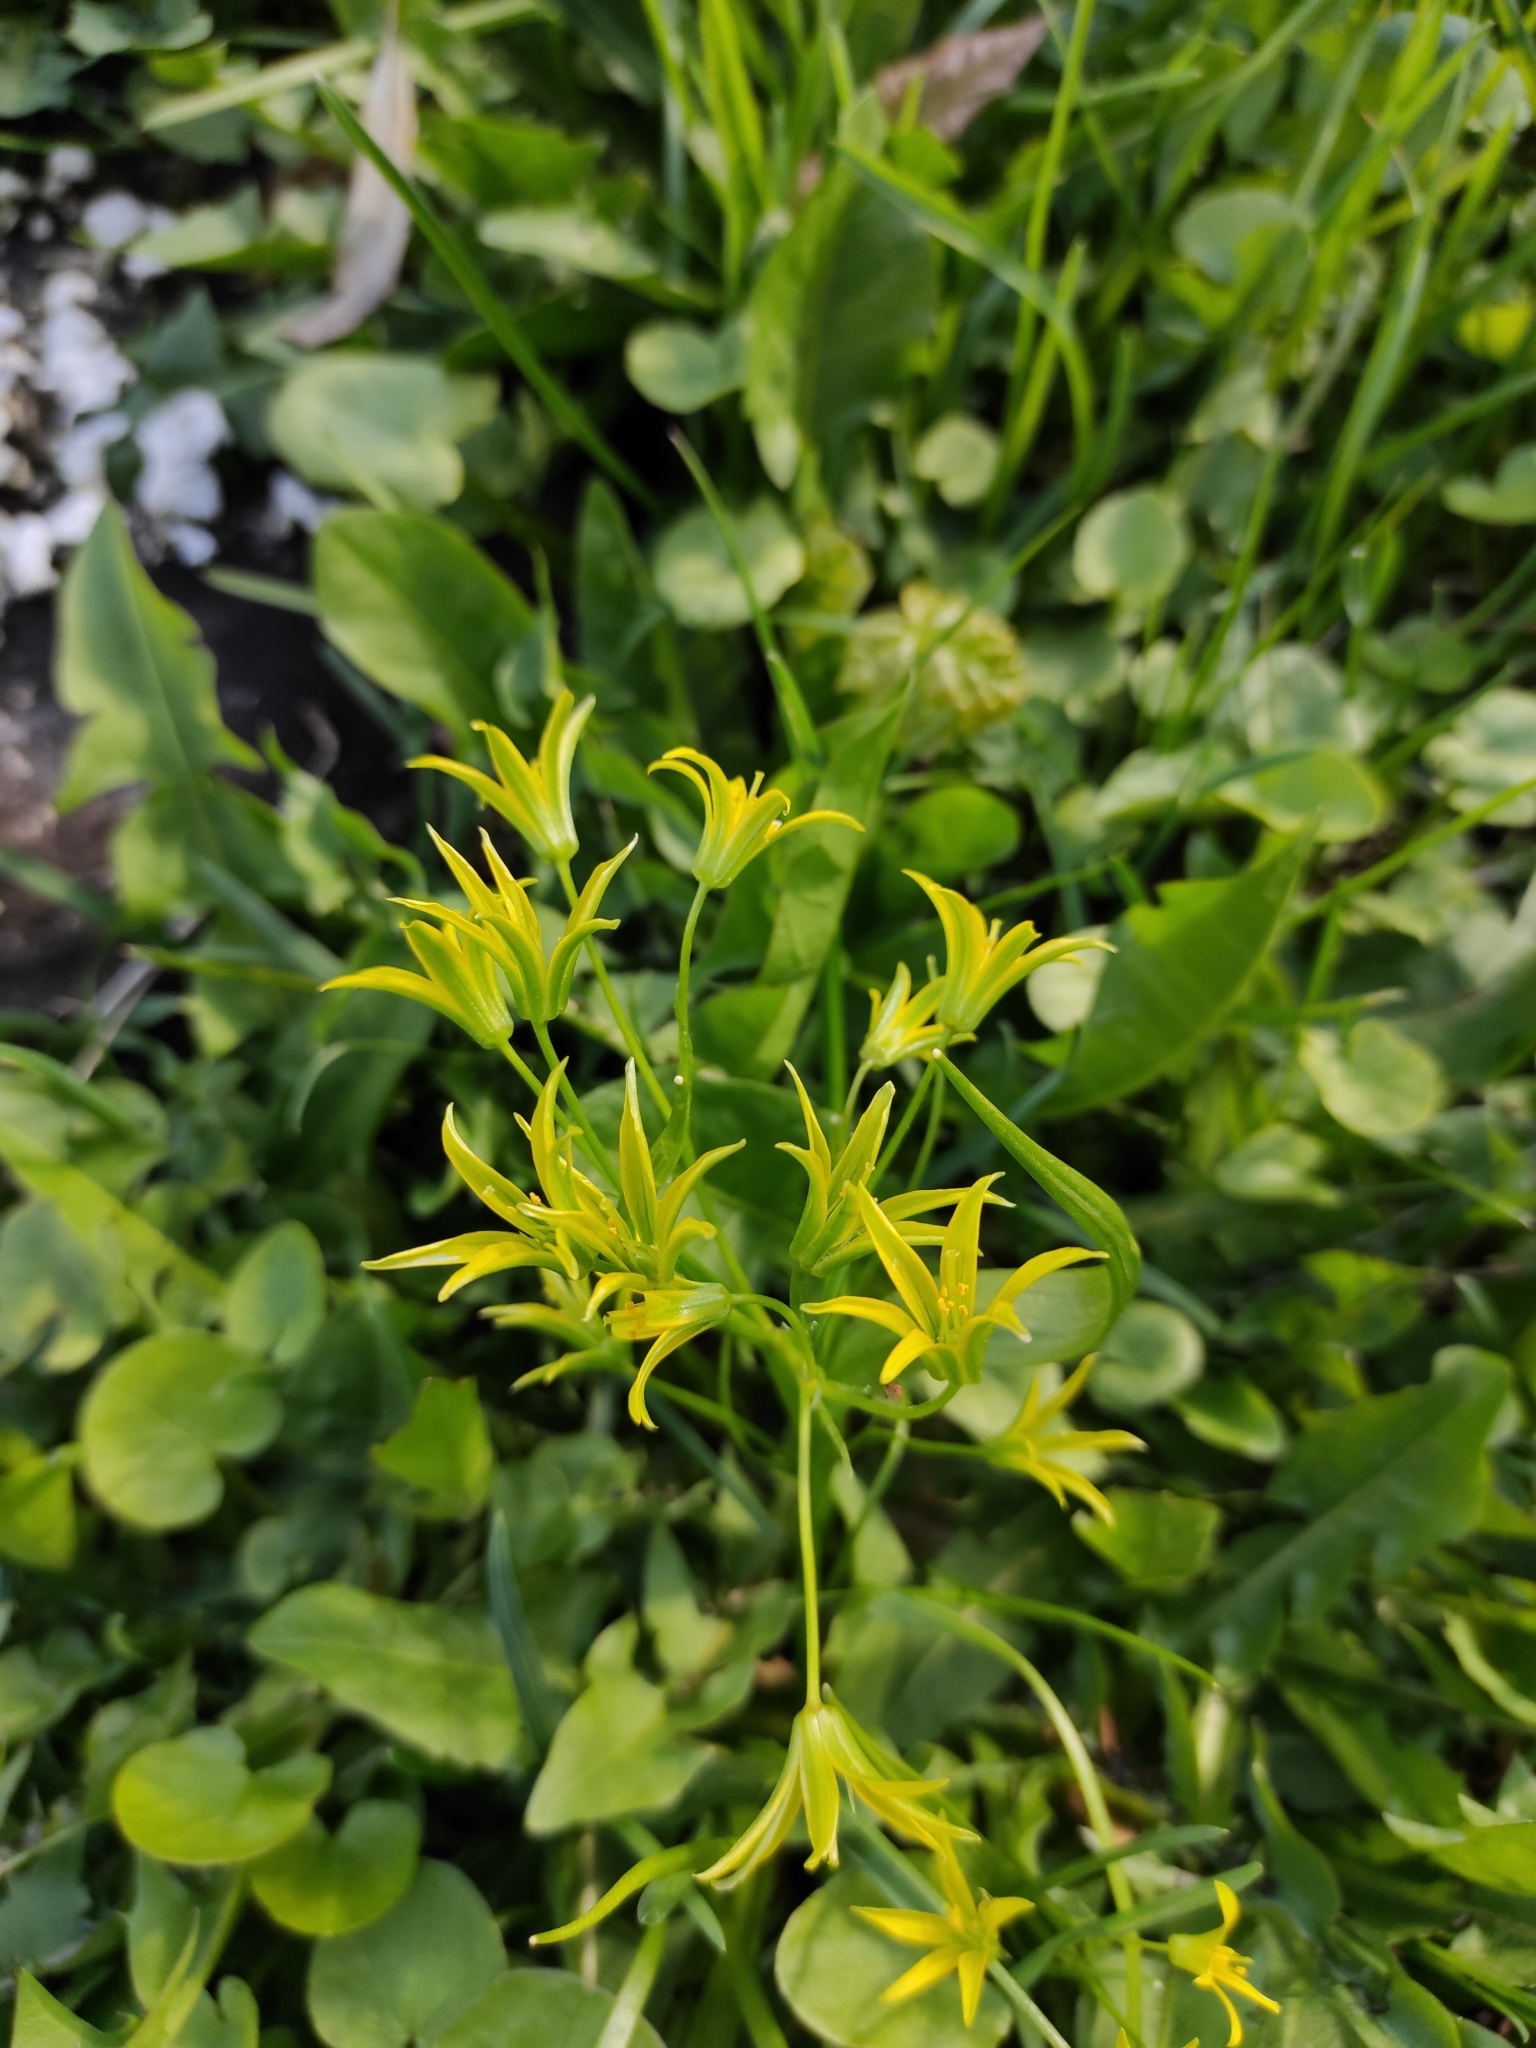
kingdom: Plantae
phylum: Tracheophyta
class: Liliopsida
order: Liliales
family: Liliaceae
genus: Gagea
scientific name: Gagea minima
